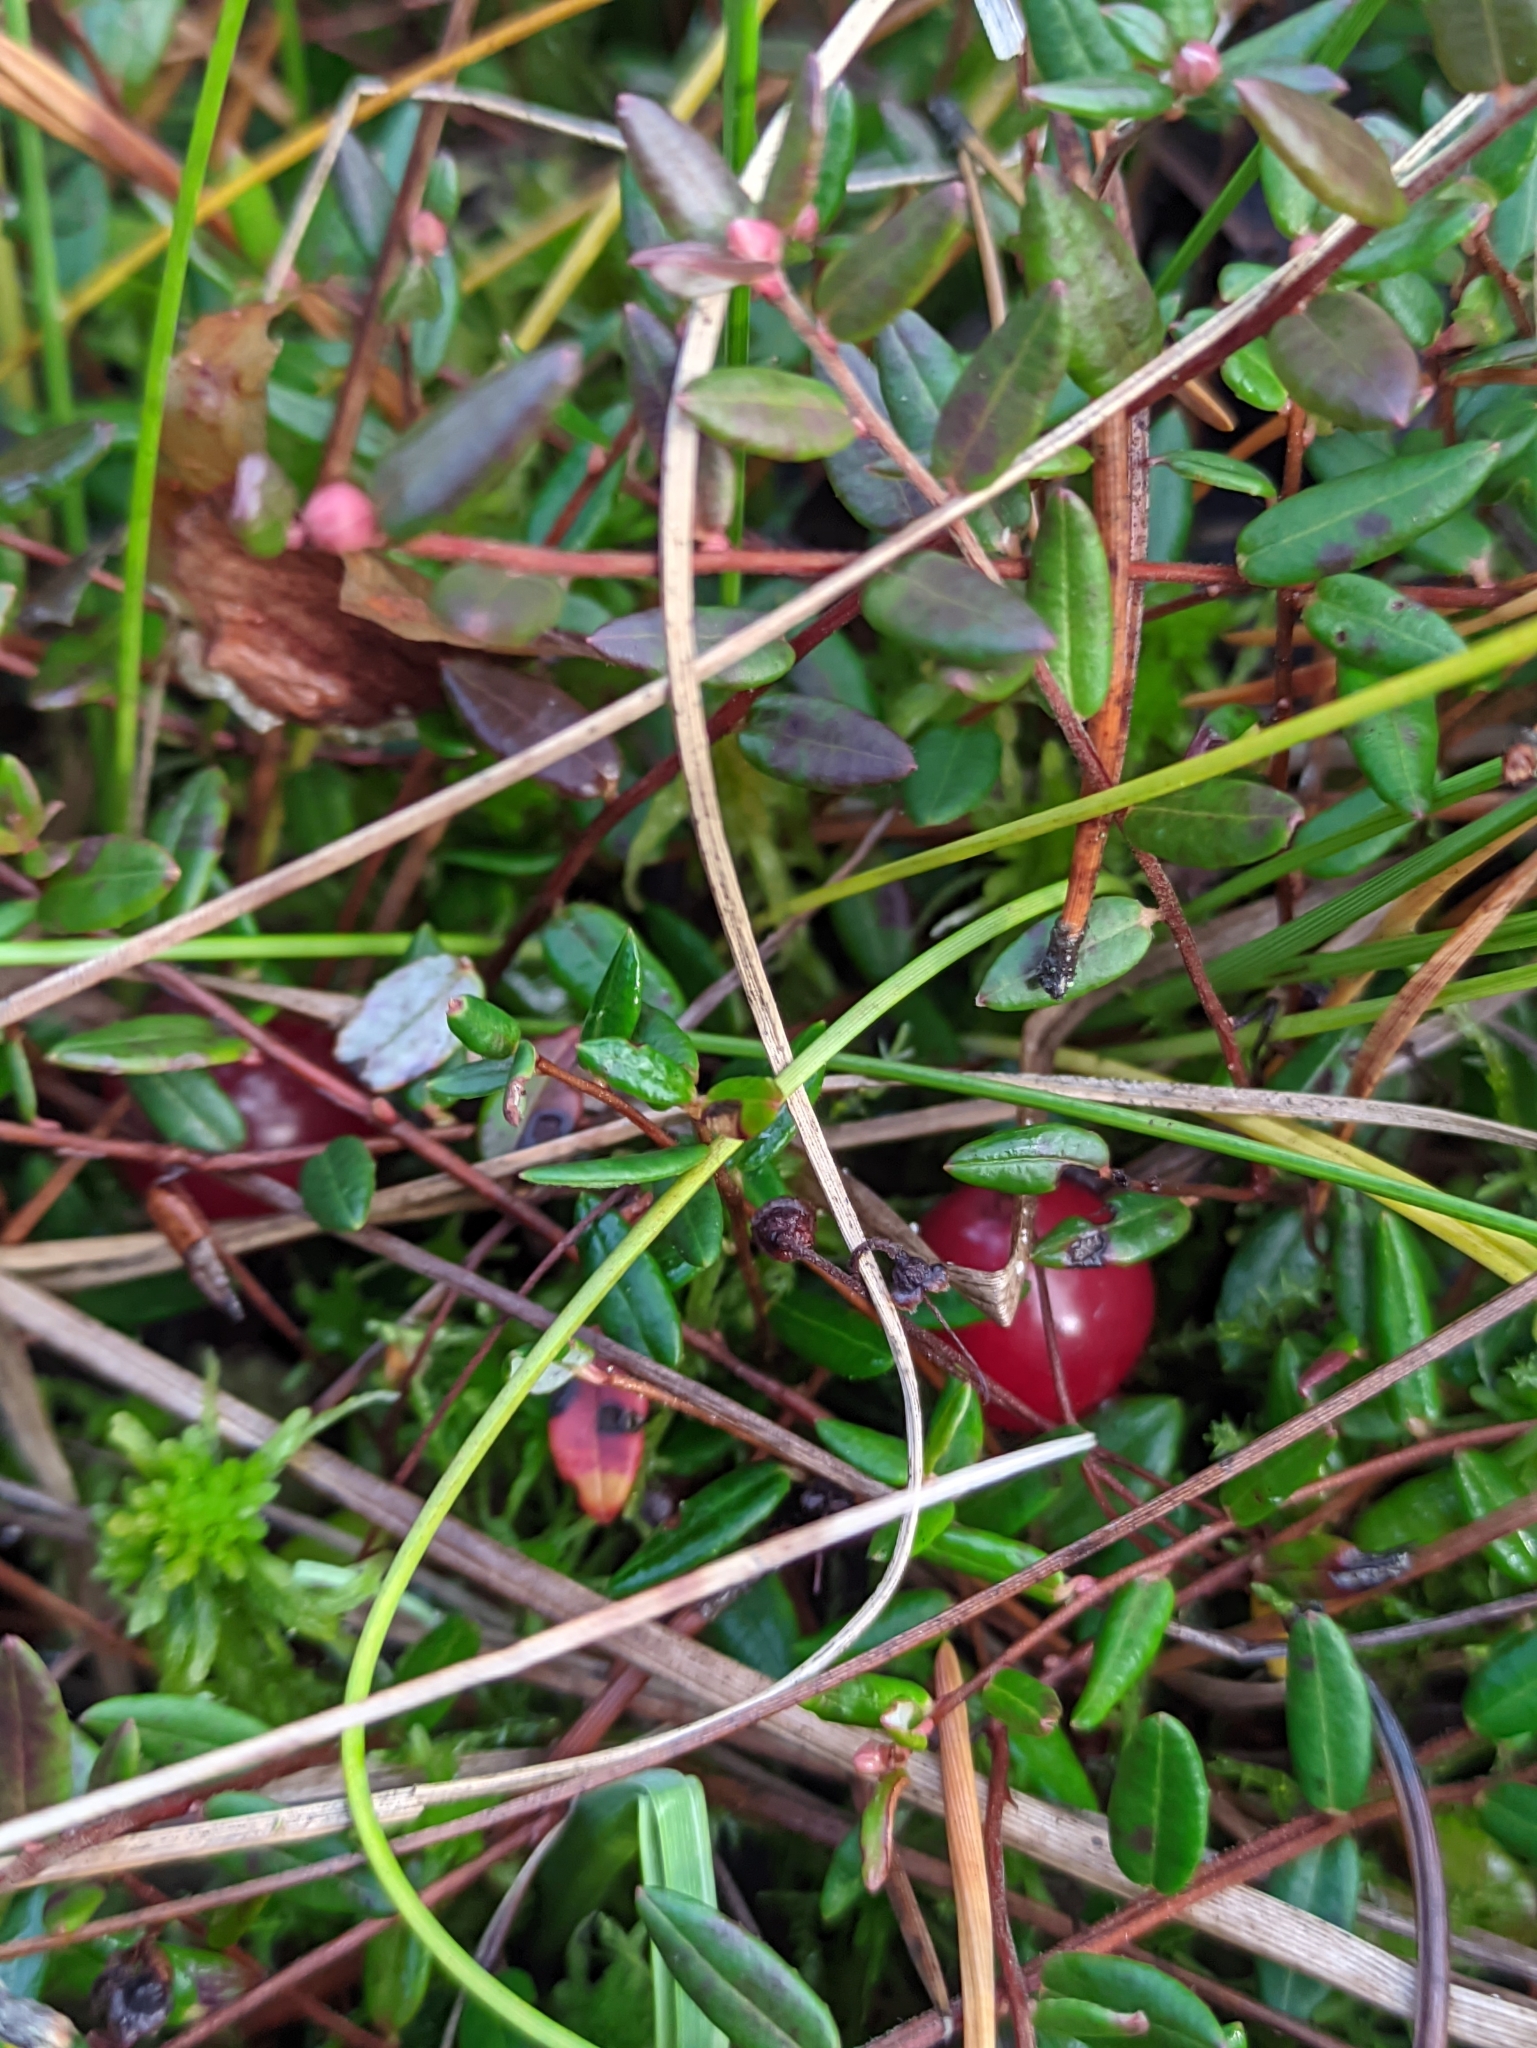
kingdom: Plantae
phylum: Tracheophyta
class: Magnoliopsida
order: Ericales
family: Ericaceae
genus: Vaccinium
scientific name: Vaccinium oxycoccos
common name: Cranberry
